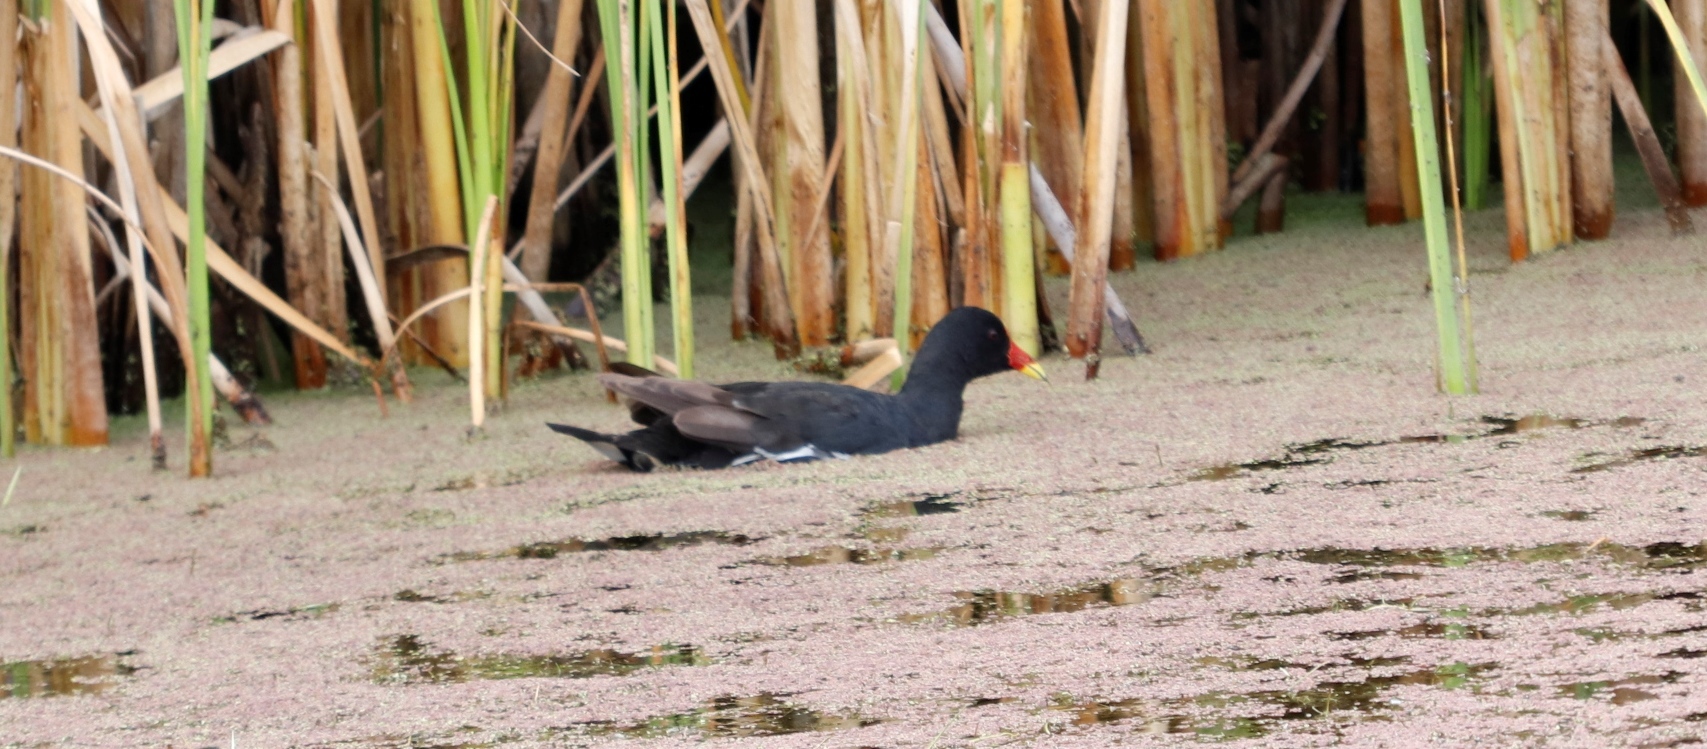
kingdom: Animalia
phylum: Chordata
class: Aves
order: Gruiformes
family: Rallidae
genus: Gallinula
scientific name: Gallinula chloropus
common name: Common moorhen
